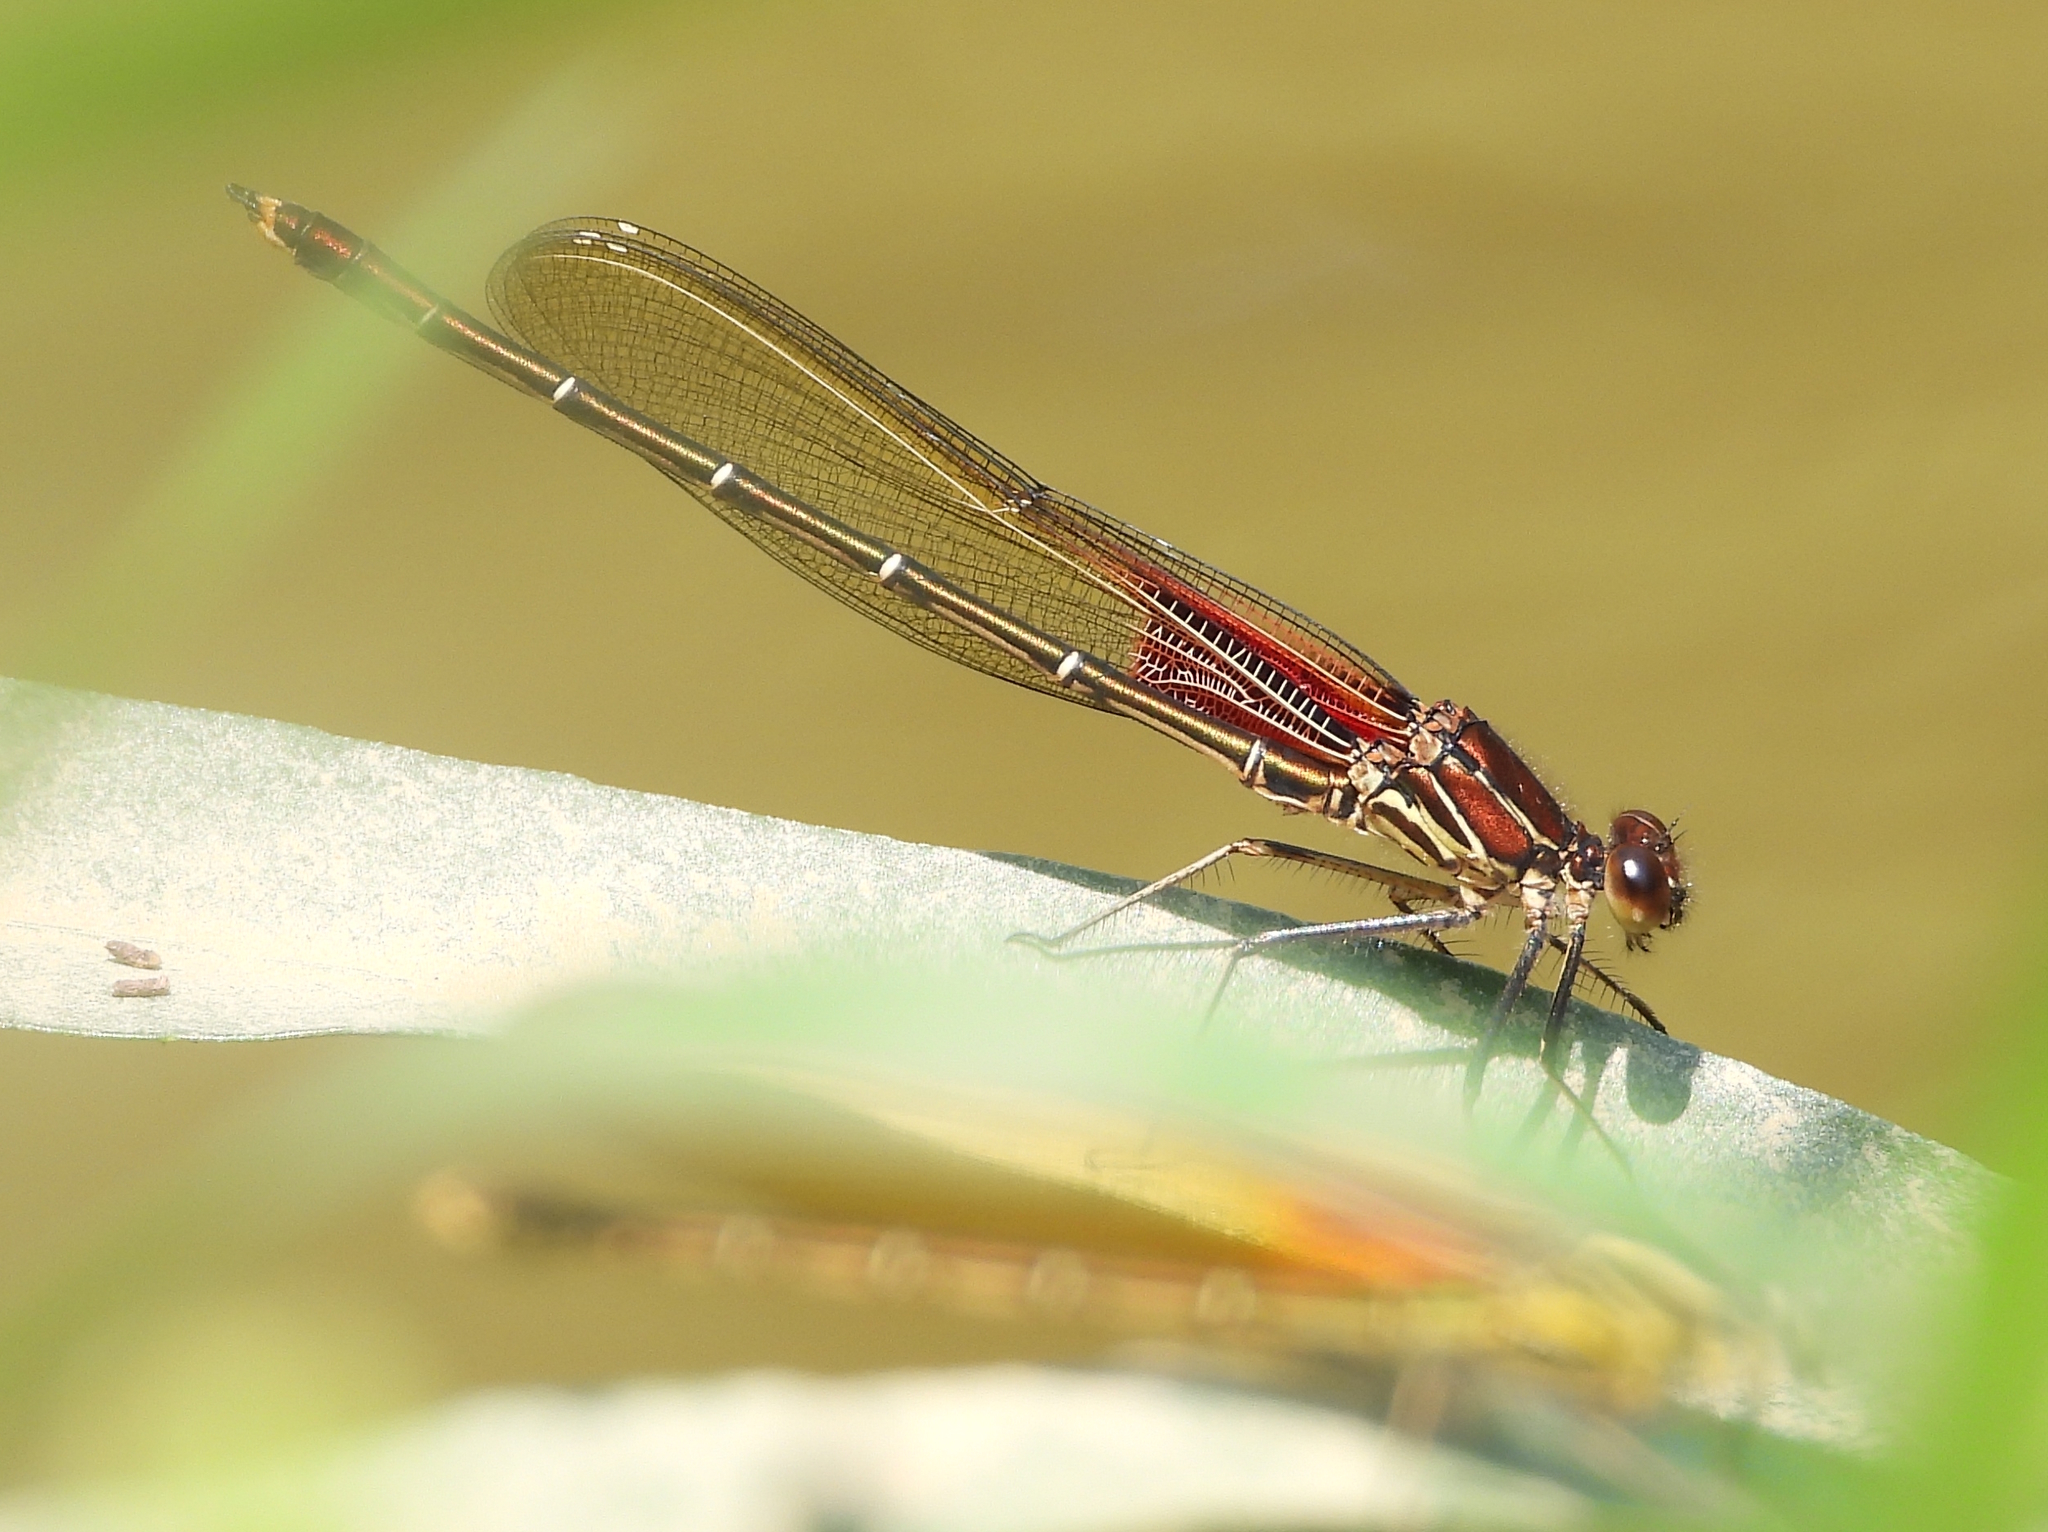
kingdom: Animalia
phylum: Arthropoda
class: Insecta
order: Odonata
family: Calopterygidae
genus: Hetaerina
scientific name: Hetaerina americana
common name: American rubyspot
